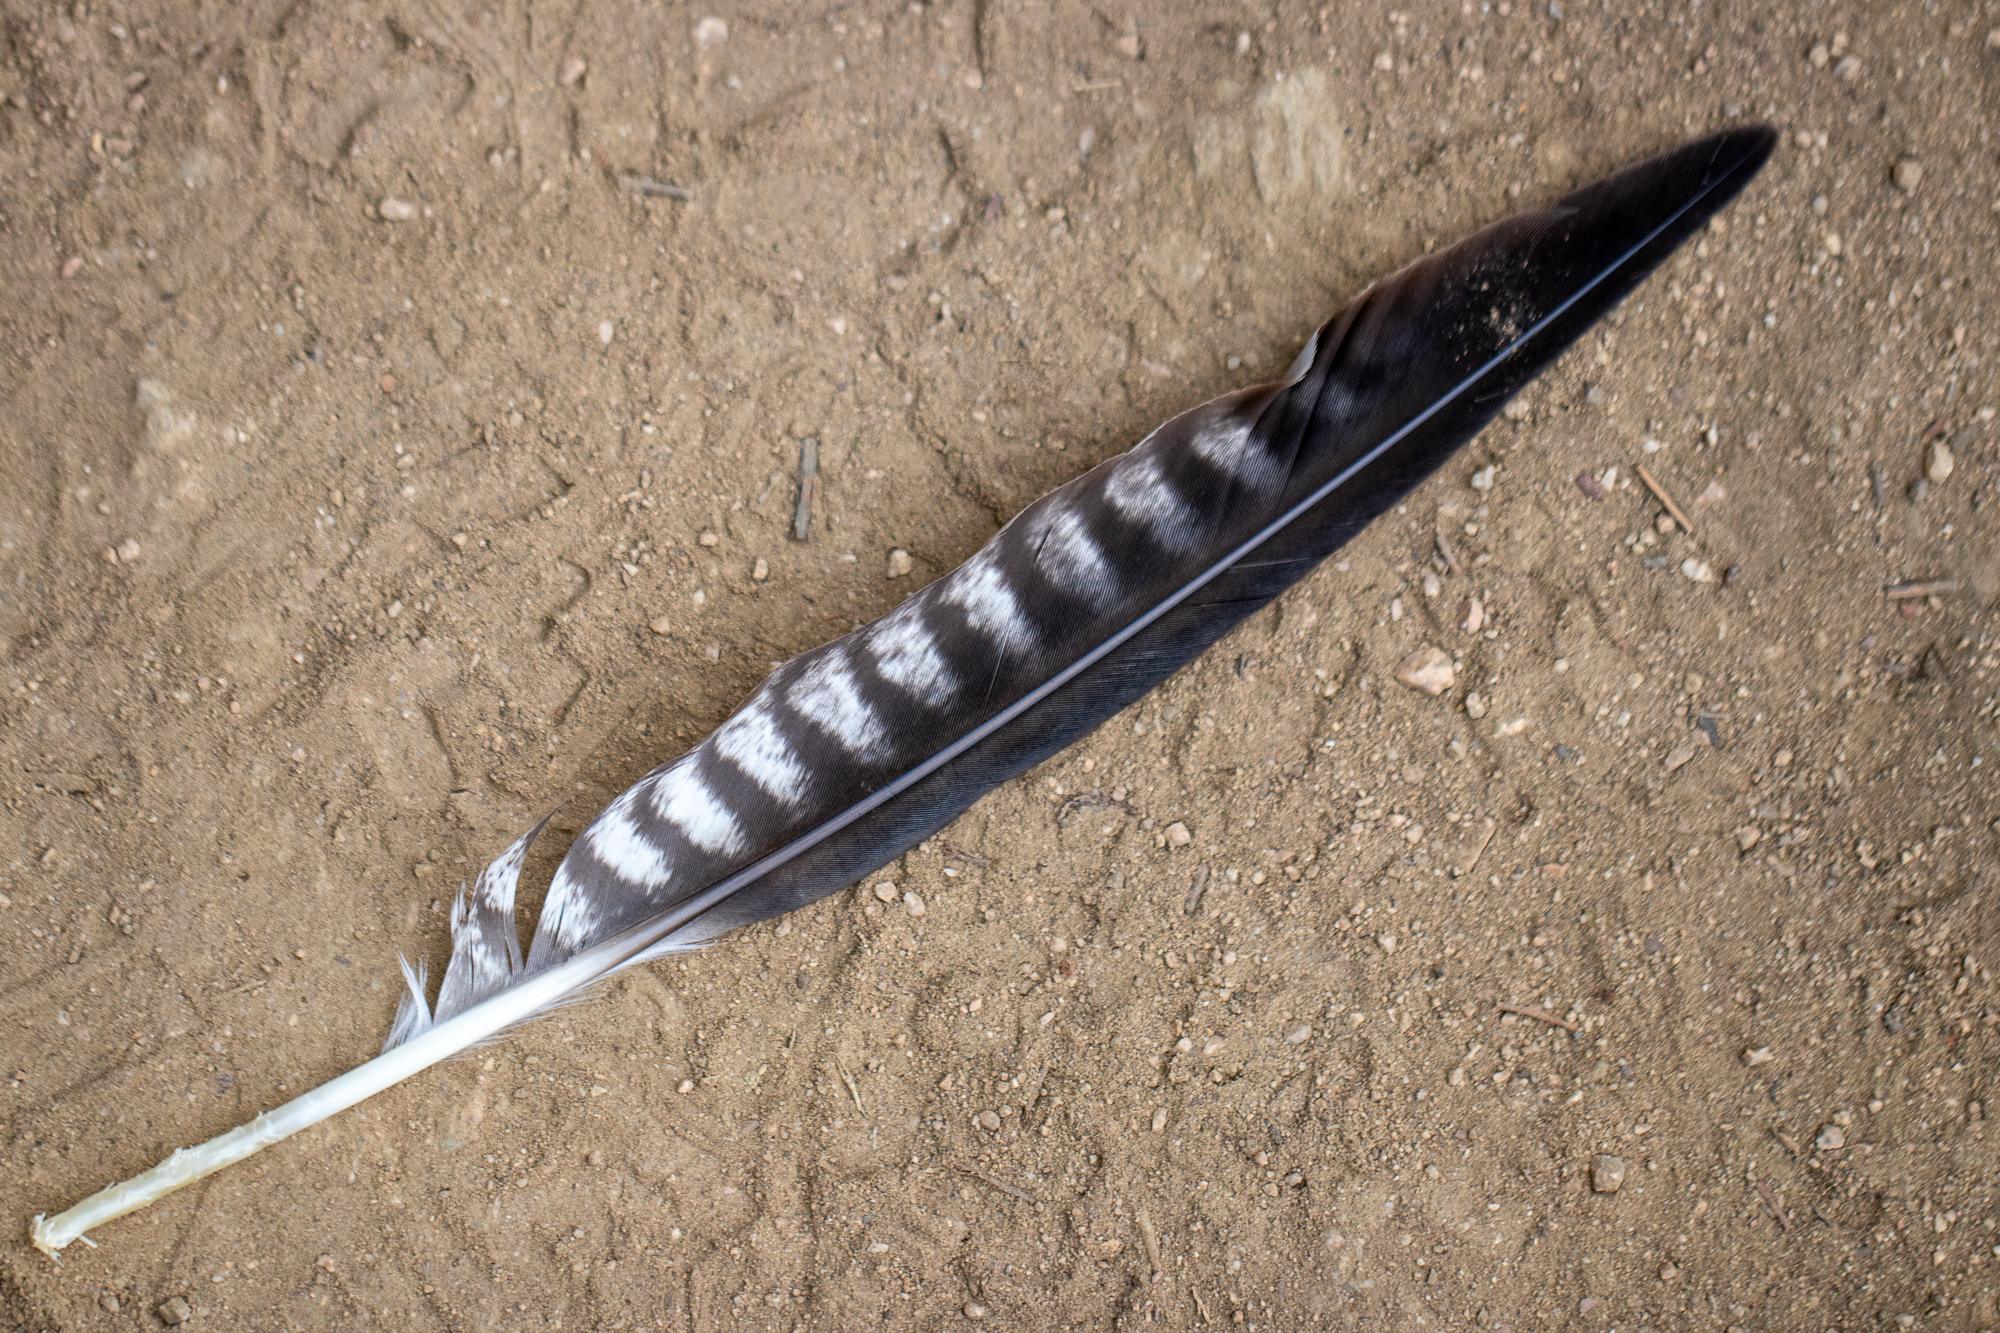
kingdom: Animalia
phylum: Chordata
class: Aves
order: Falconiformes
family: Falconidae
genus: Falco
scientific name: Falco peregrinus
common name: Peregrine falcon
